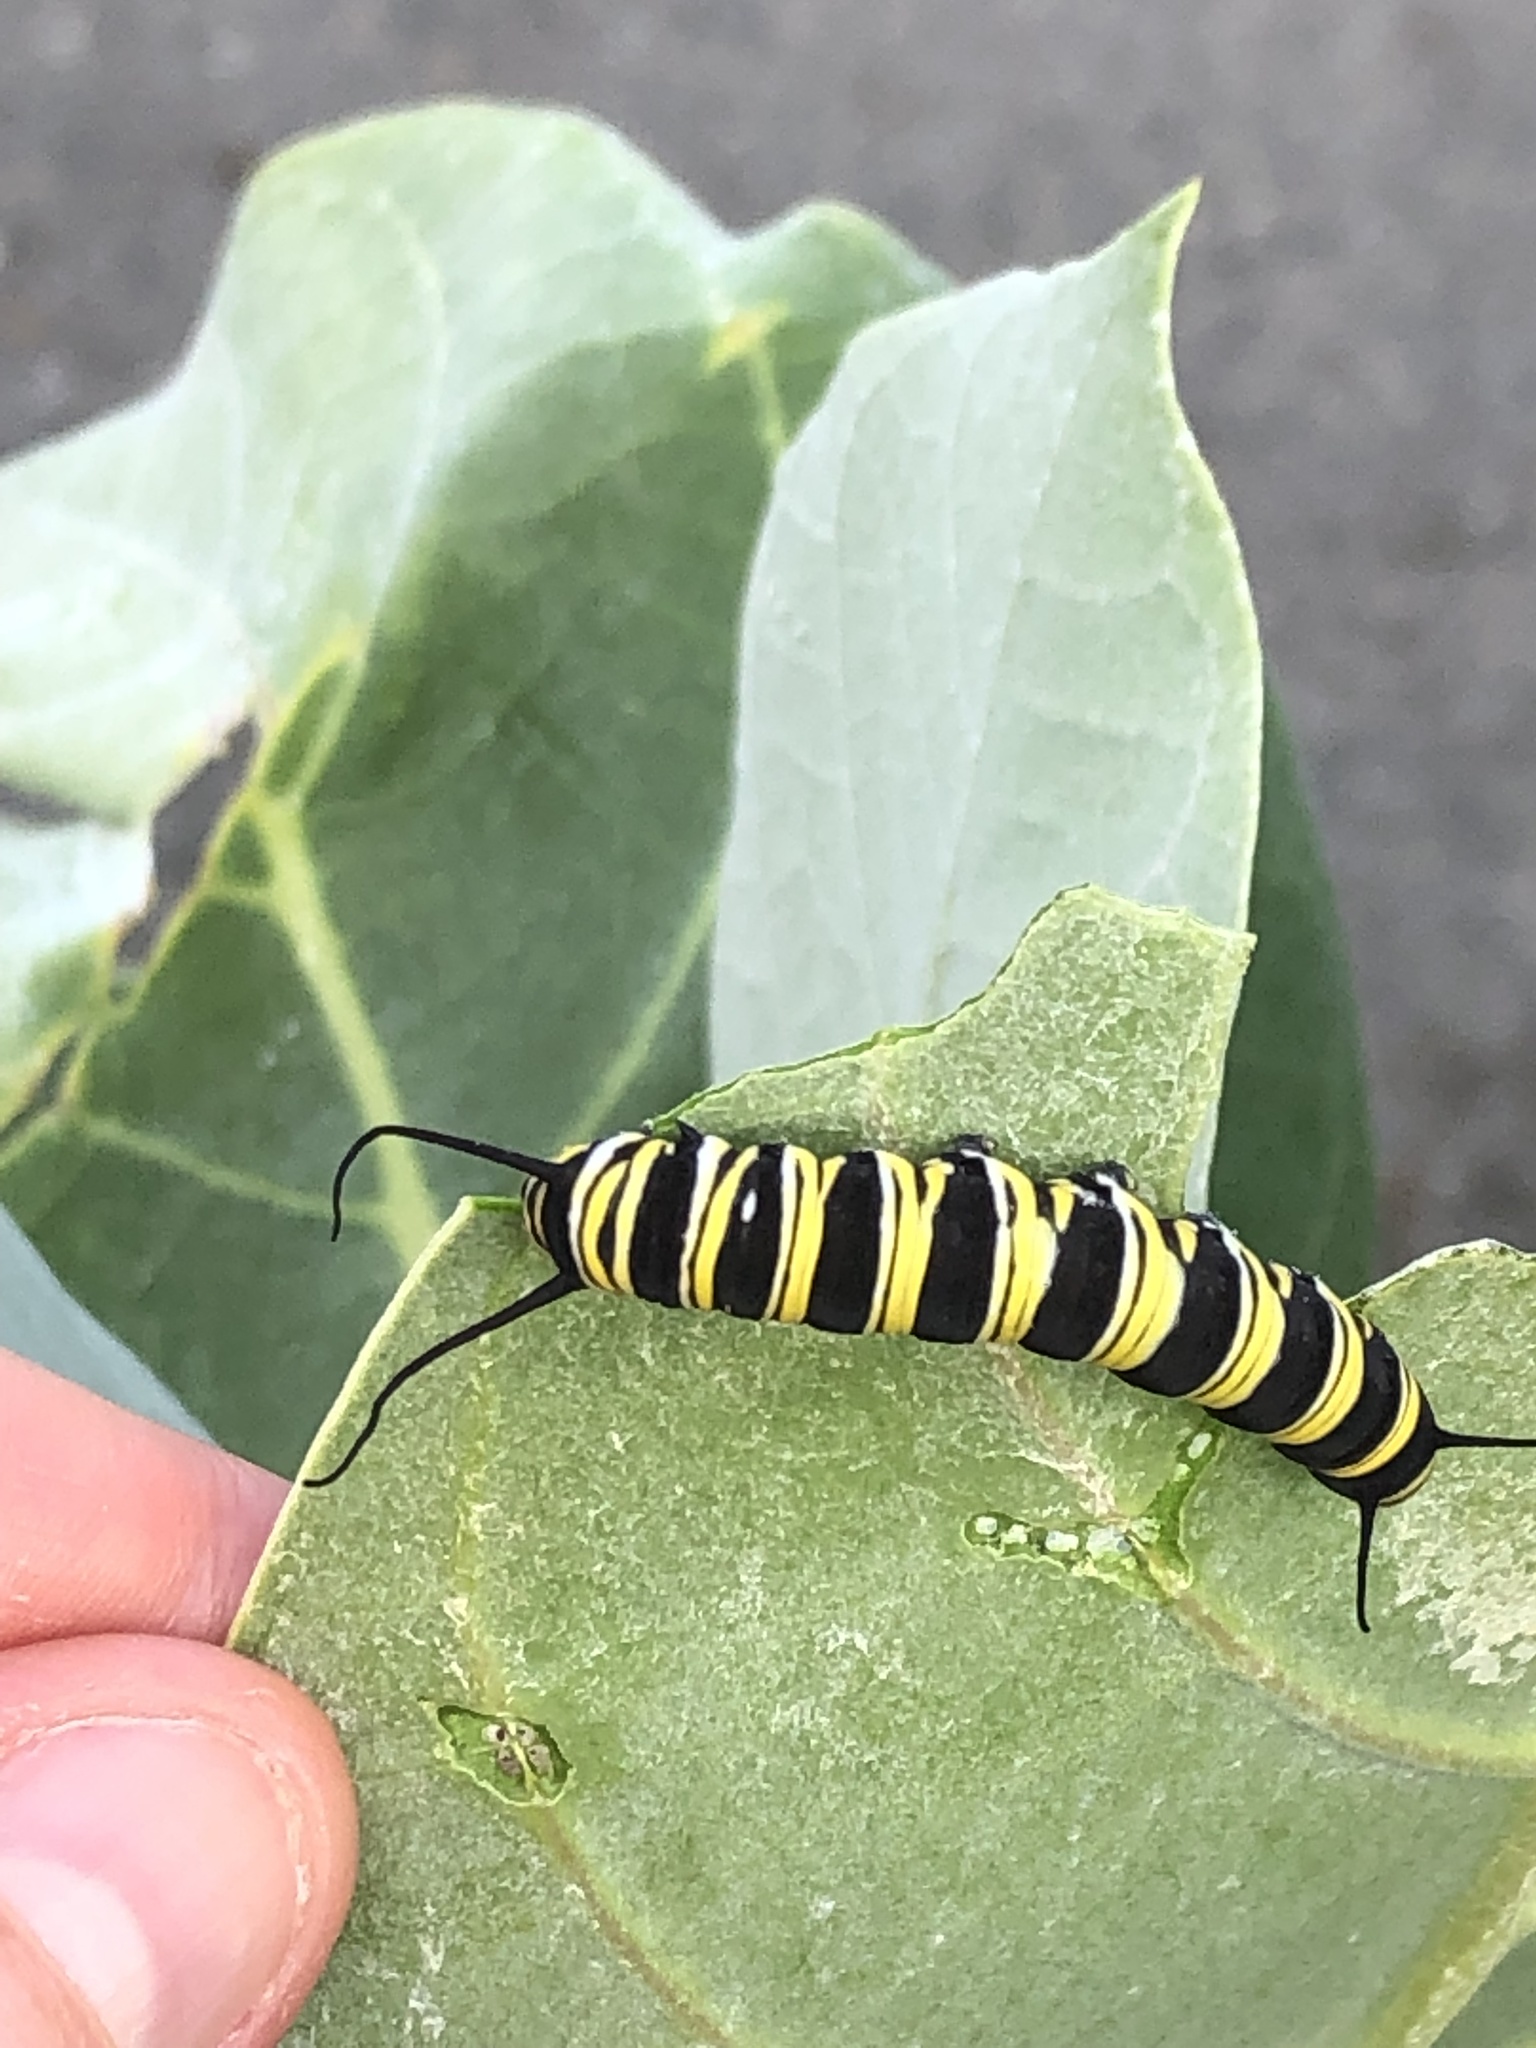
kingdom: Animalia
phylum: Arthropoda
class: Insecta
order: Lepidoptera
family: Nymphalidae
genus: Danaus
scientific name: Danaus plexippus
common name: Monarch
